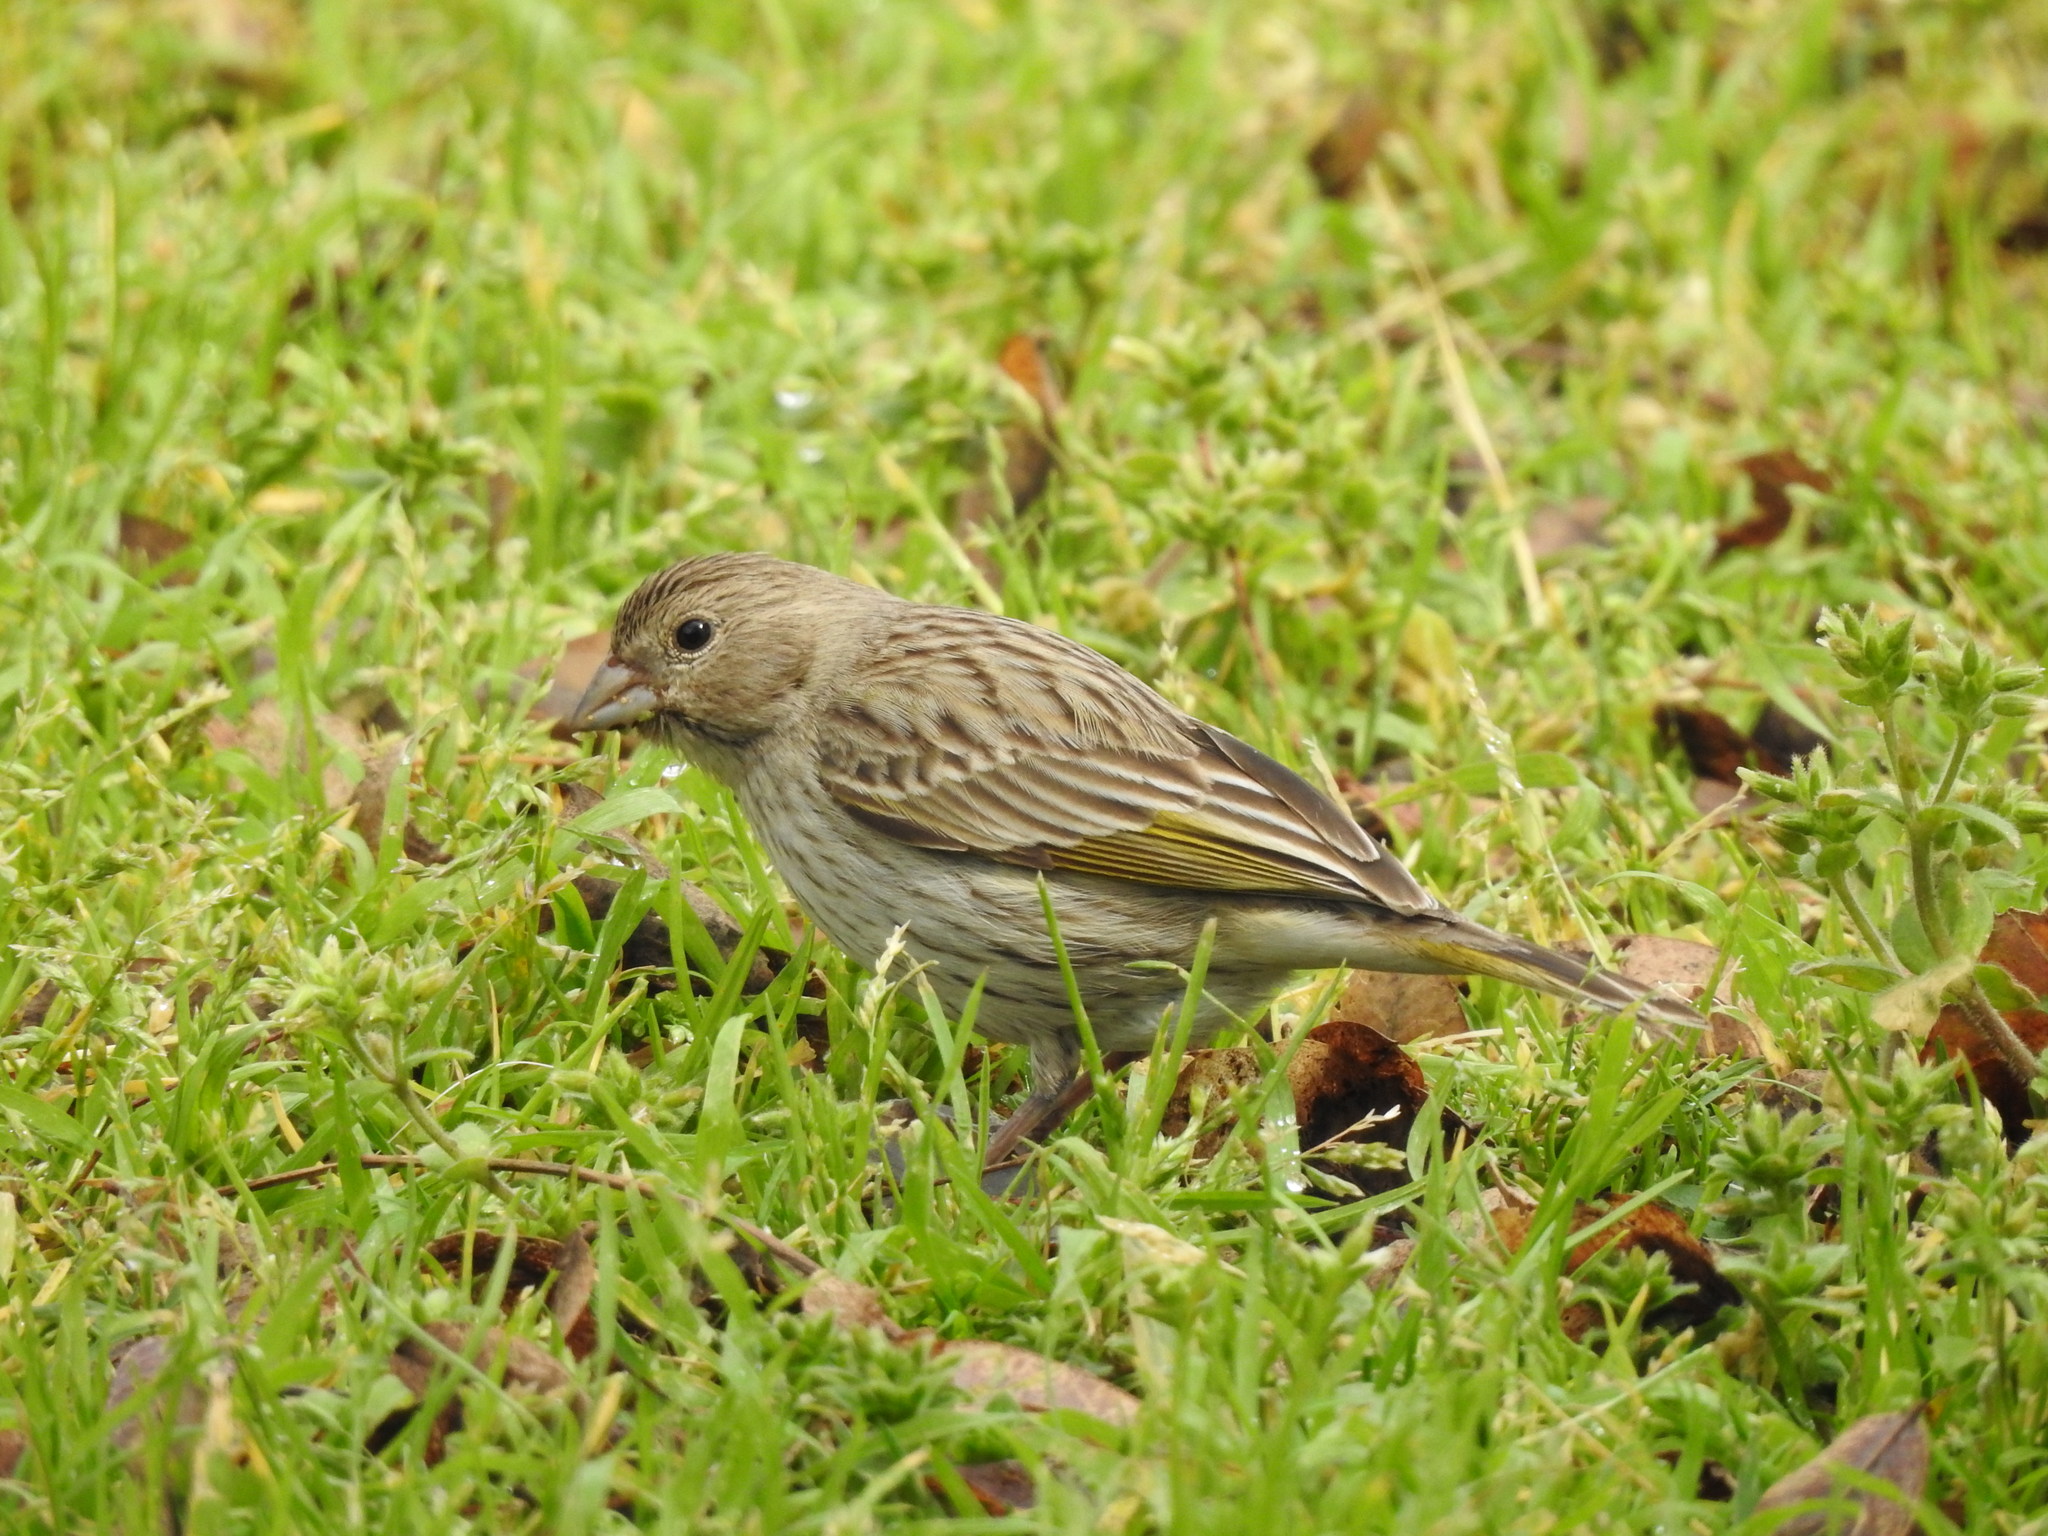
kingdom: Animalia
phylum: Chordata
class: Aves
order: Passeriformes
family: Thraupidae
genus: Sicalis
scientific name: Sicalis flaveola
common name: Saffron finch
